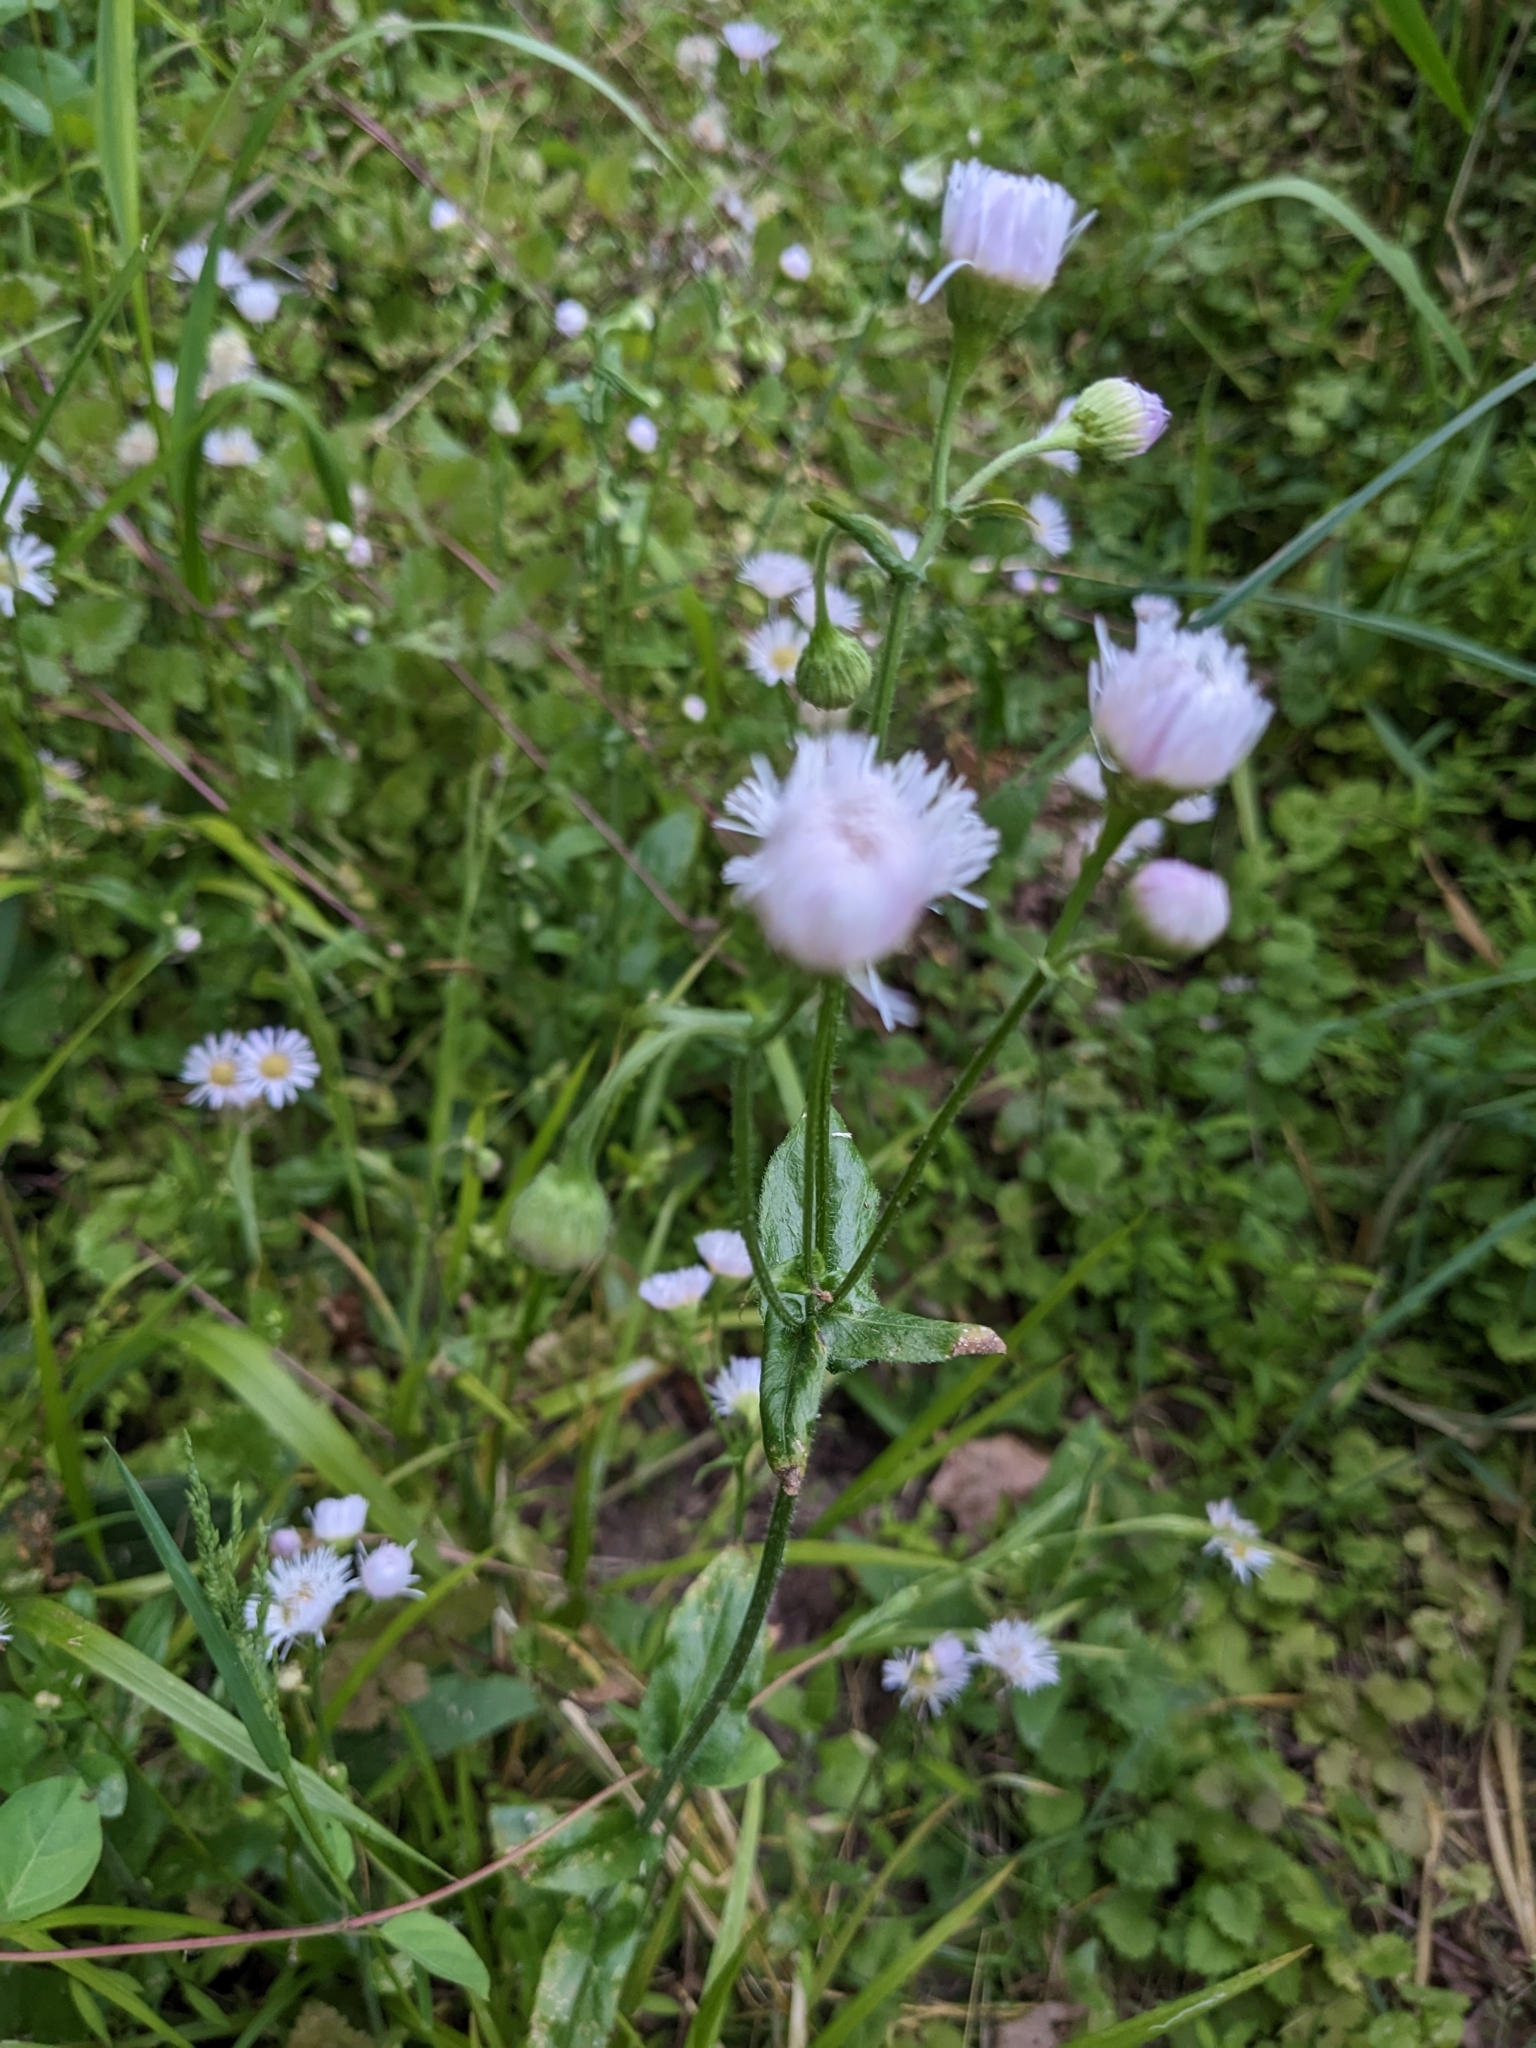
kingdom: Plantae
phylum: Tracheophyta
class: Magnoliopsida
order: Asterales
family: Asteraceae
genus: Erigeron
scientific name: Erigeron philadelphicus
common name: Robin's-plantain
